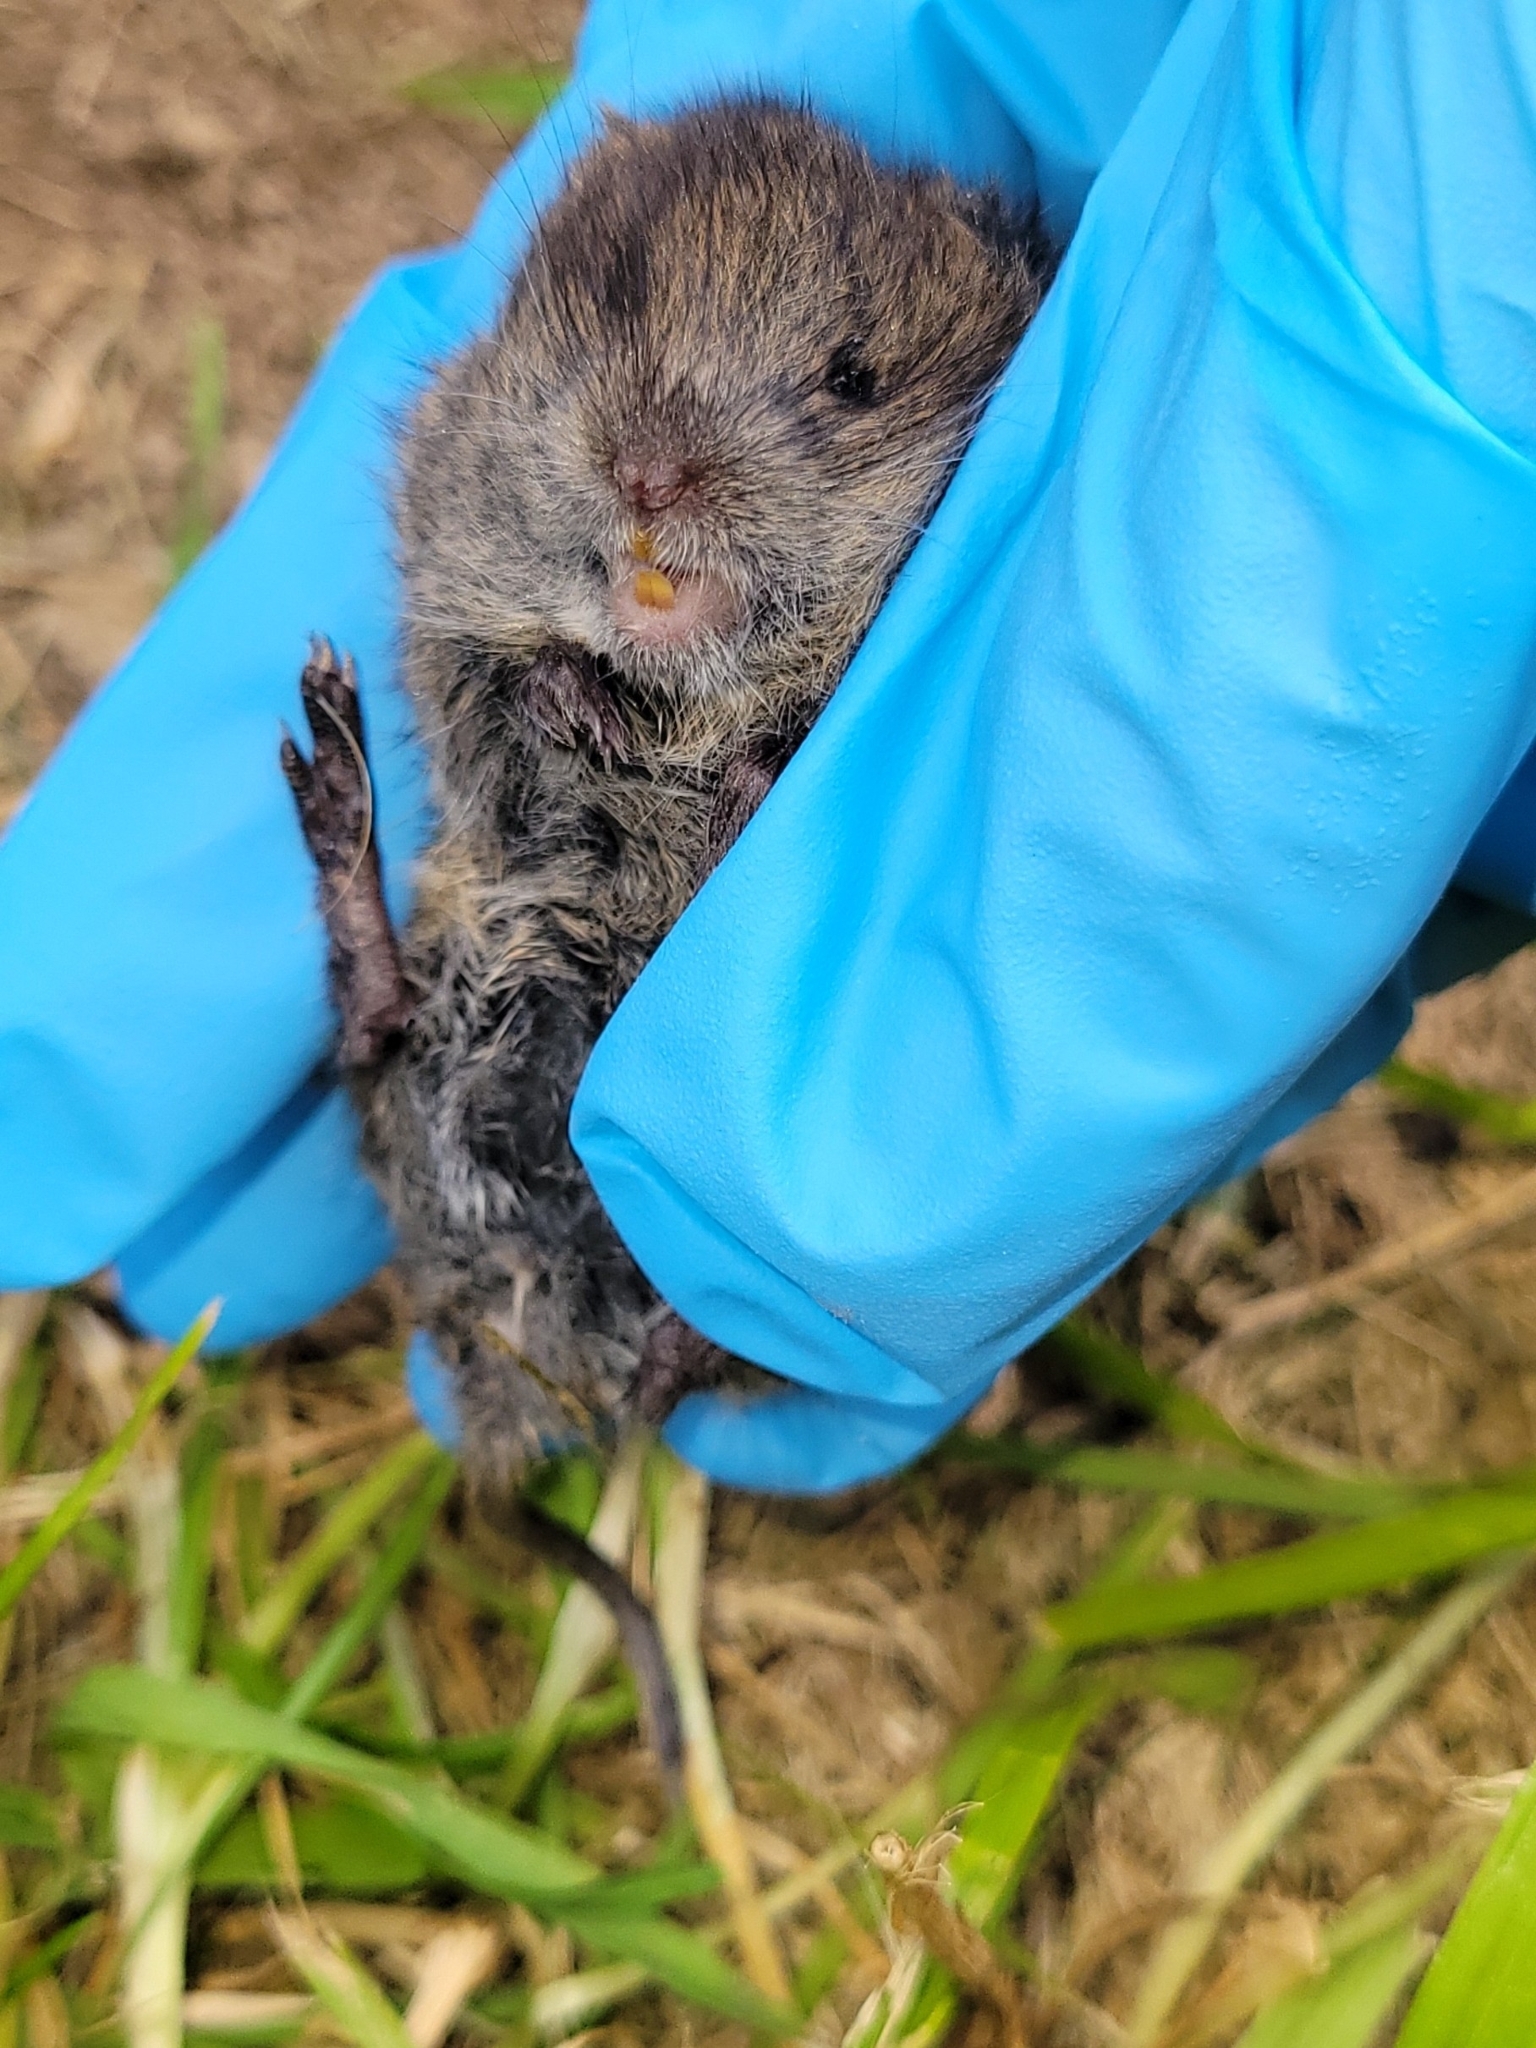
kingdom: Animalia
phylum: Chordata
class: Mammalia
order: Rodentia
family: Cricetidae
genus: Microtus
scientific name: Microtus pennsylvanicus
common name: Meadow vole
